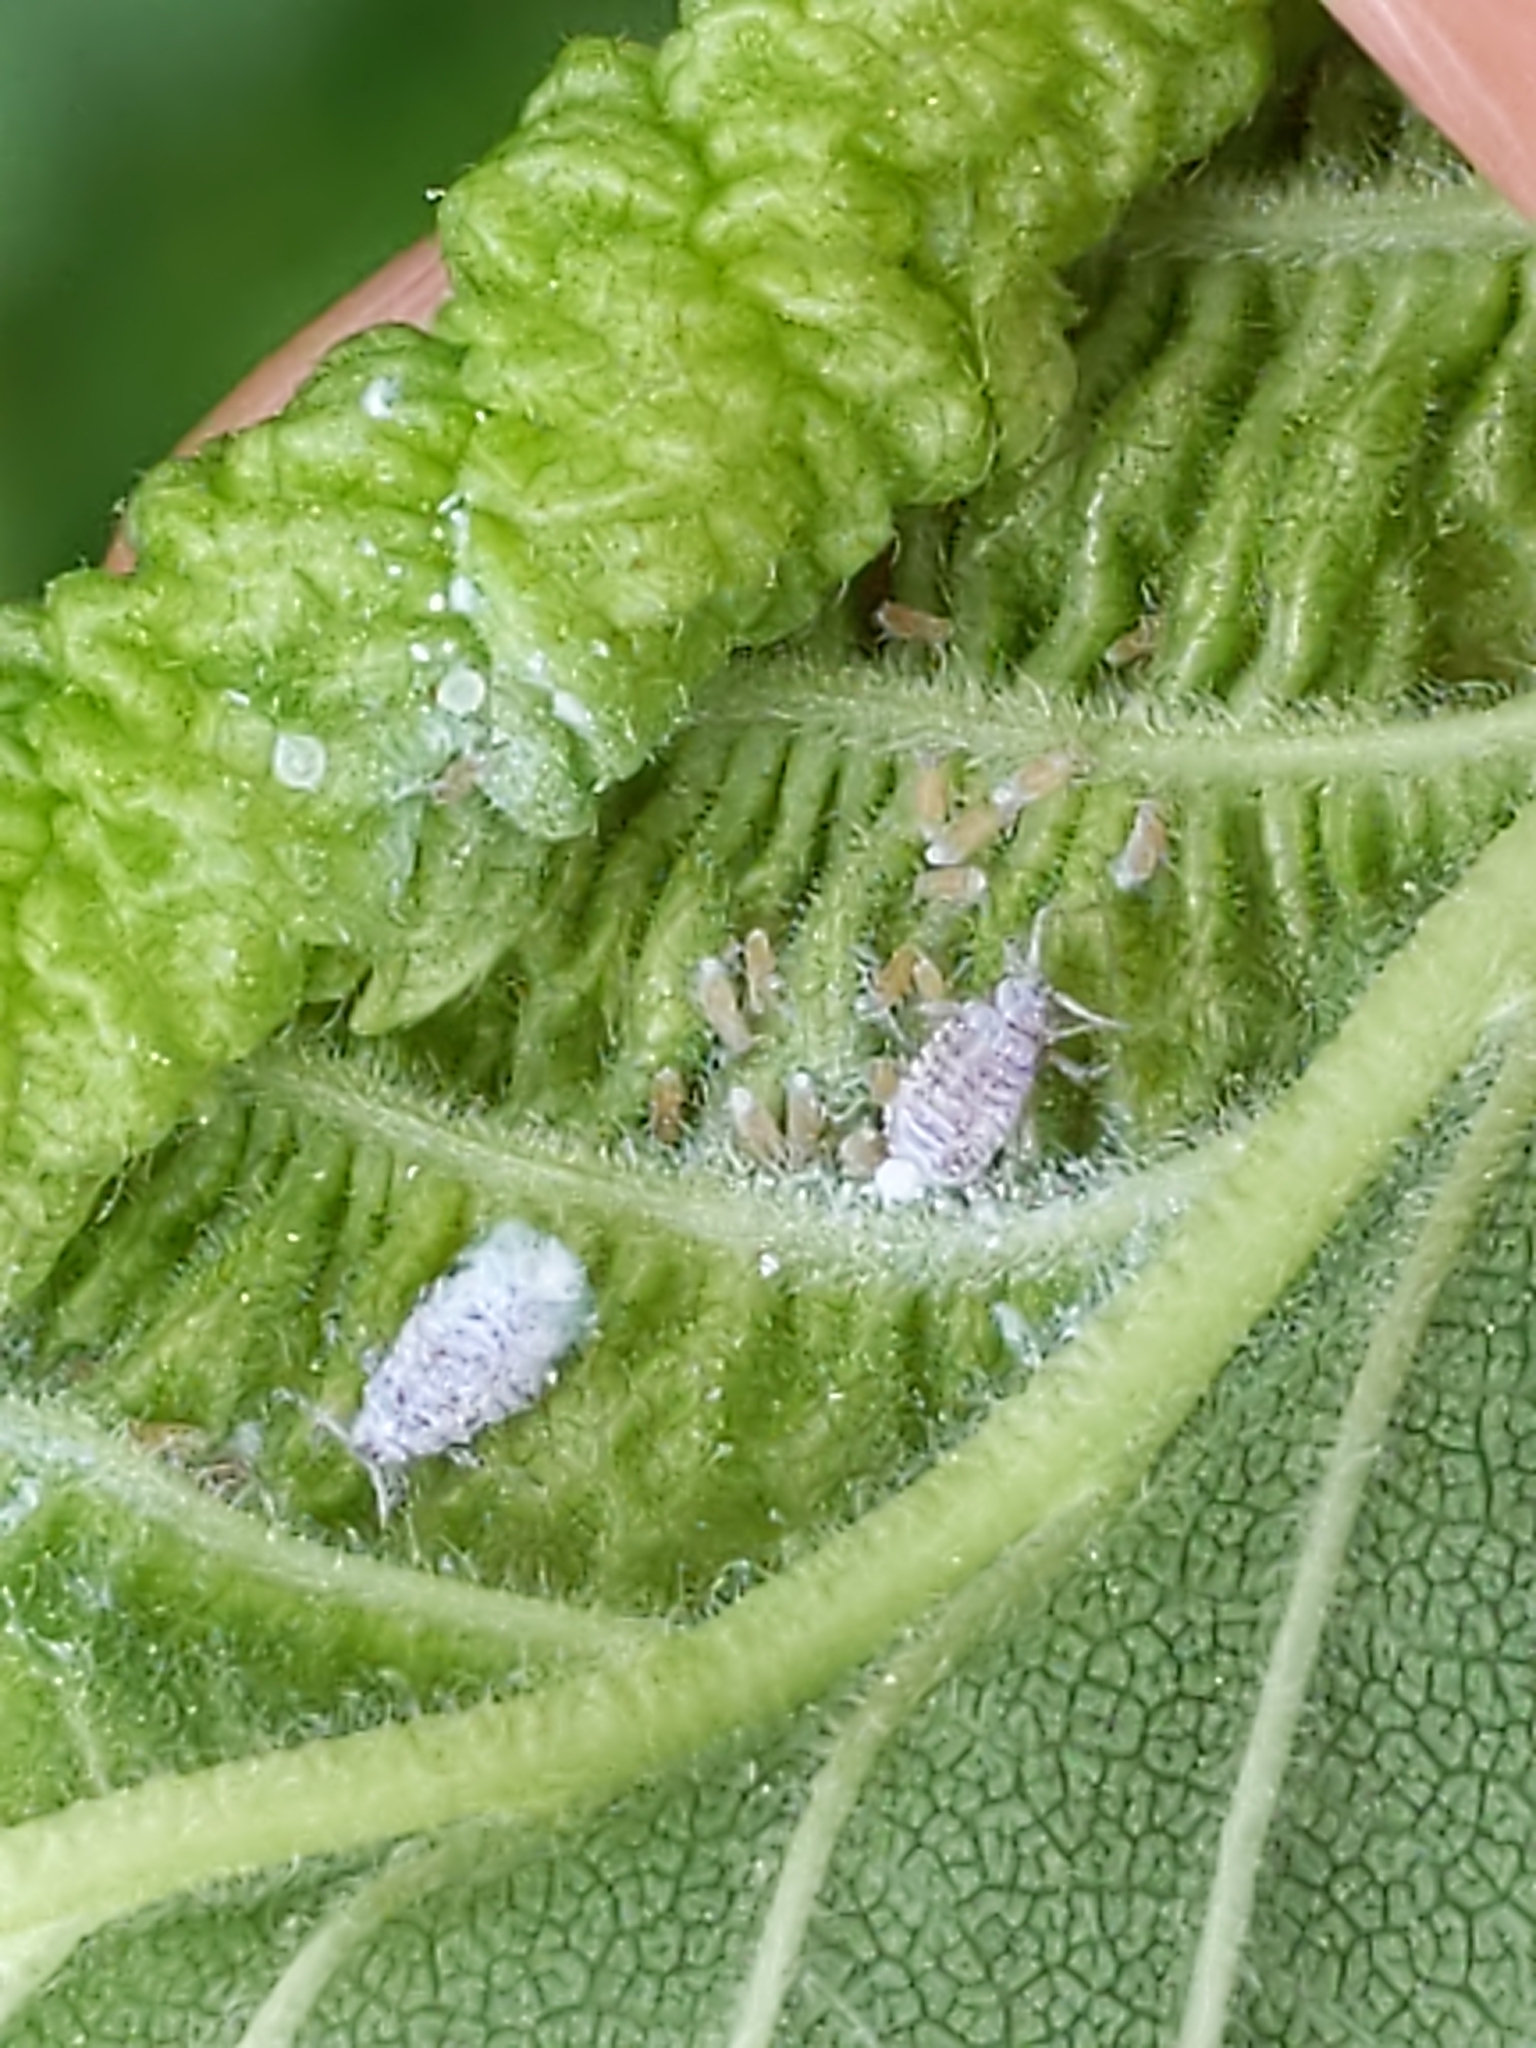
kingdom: Animalia
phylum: Arthropoda
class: Insecta
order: Hemiptera
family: Aphididae
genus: Eriosoma
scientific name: Eriosoma americanum
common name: Woolly elm aphid
